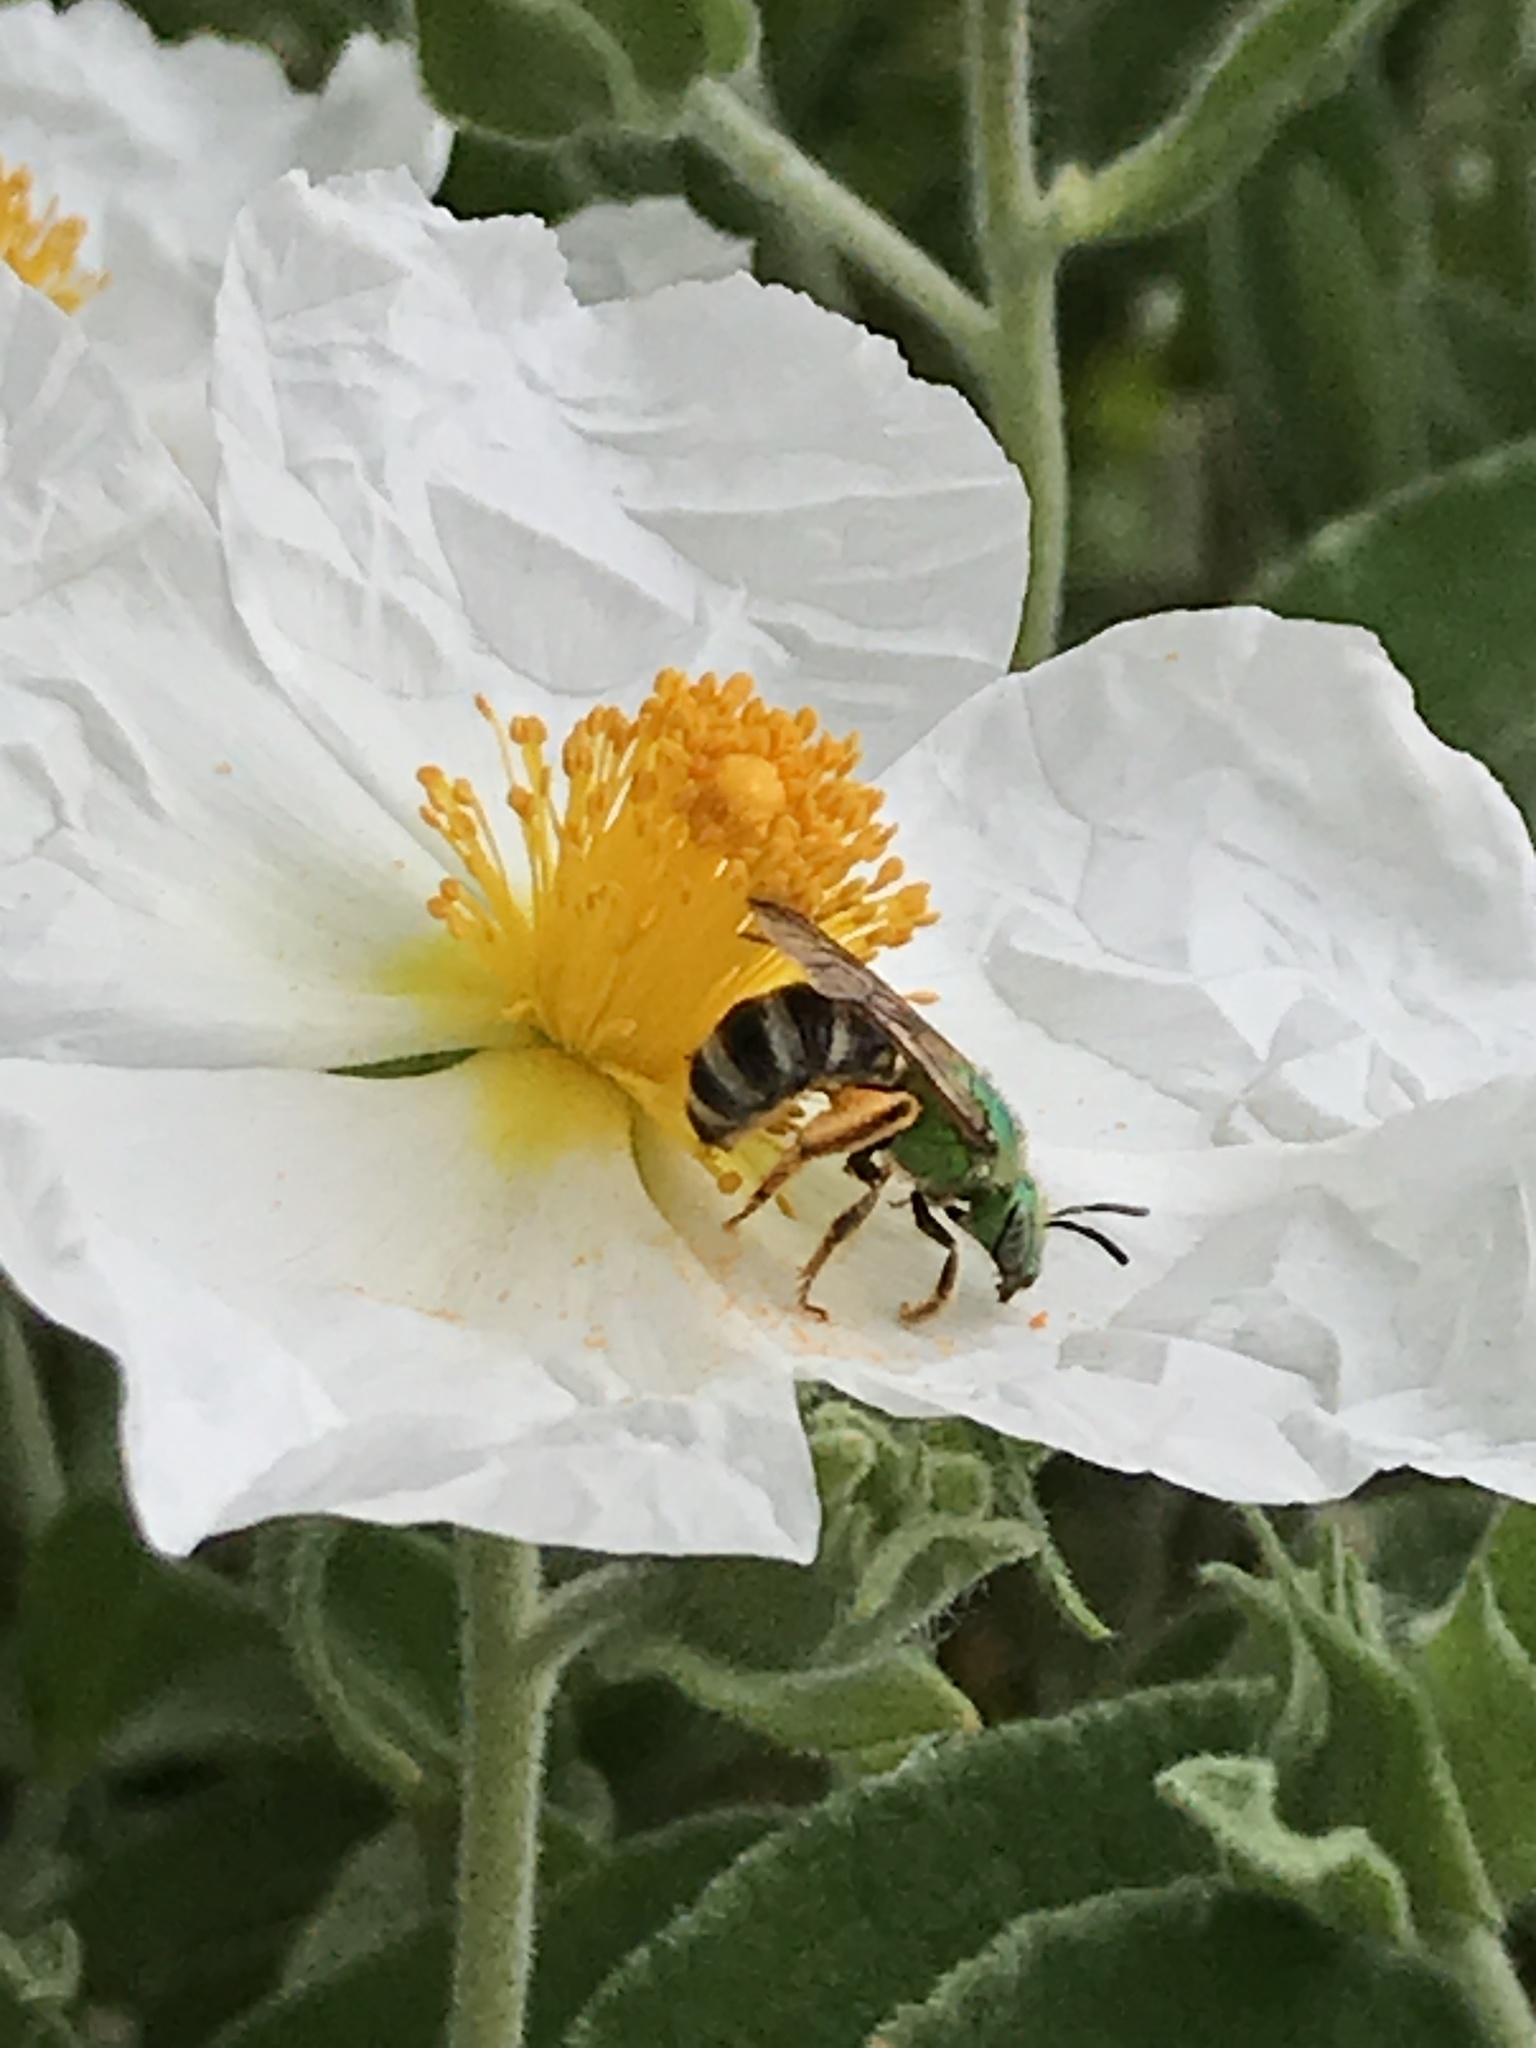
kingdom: Animalia
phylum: Arthropoda
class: Insecta
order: Hymenoptera
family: Halictidae
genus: Agapostemon
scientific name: Agapostemon virescens
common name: Bicolored striped sweat bee
